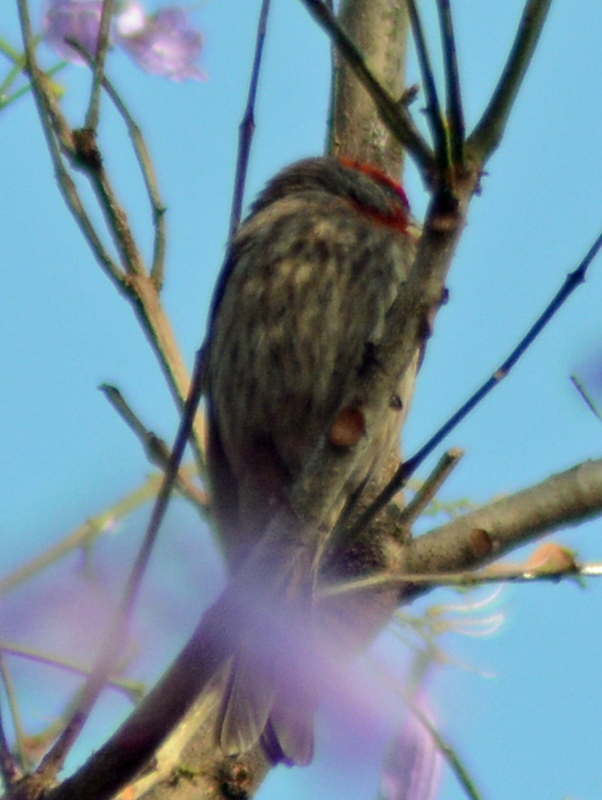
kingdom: Animalia
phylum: Chordata
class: Aves
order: Passeriformes
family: Fringillidae
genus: Haemorhous
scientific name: Haemorhous mexicanus
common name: House finch
